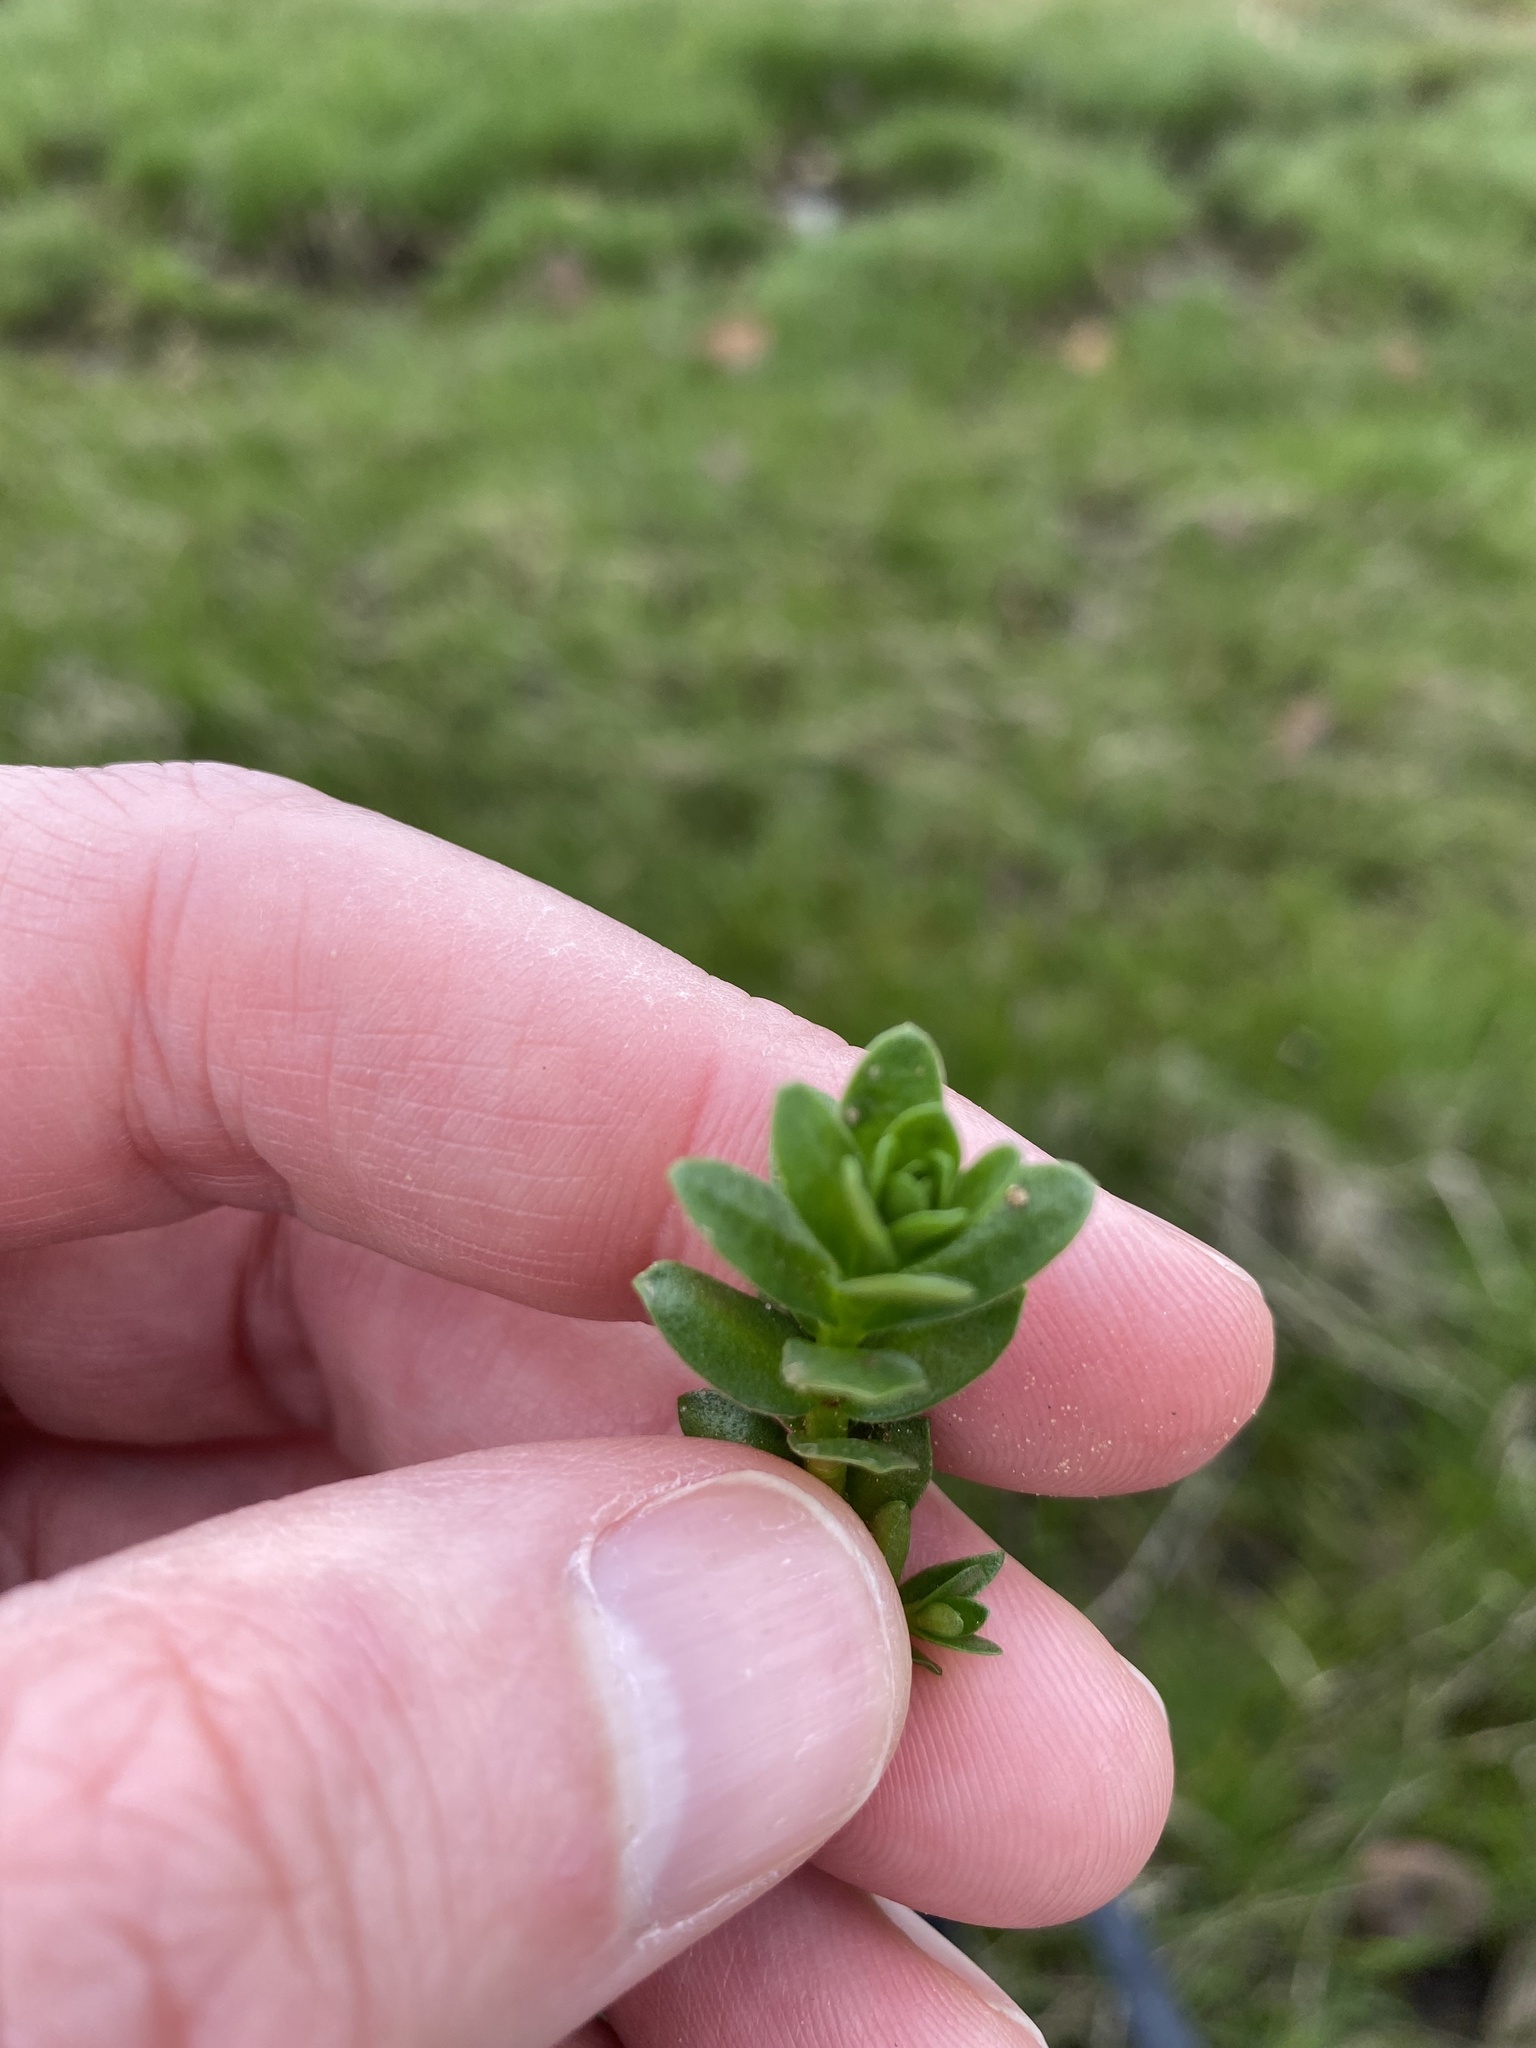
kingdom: Plantae
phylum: Tracheophyta
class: Magnoliopsida
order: Ericales
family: Primulaceae
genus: Lysimachia
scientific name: Lysimachia maritima
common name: Sea milkwort
